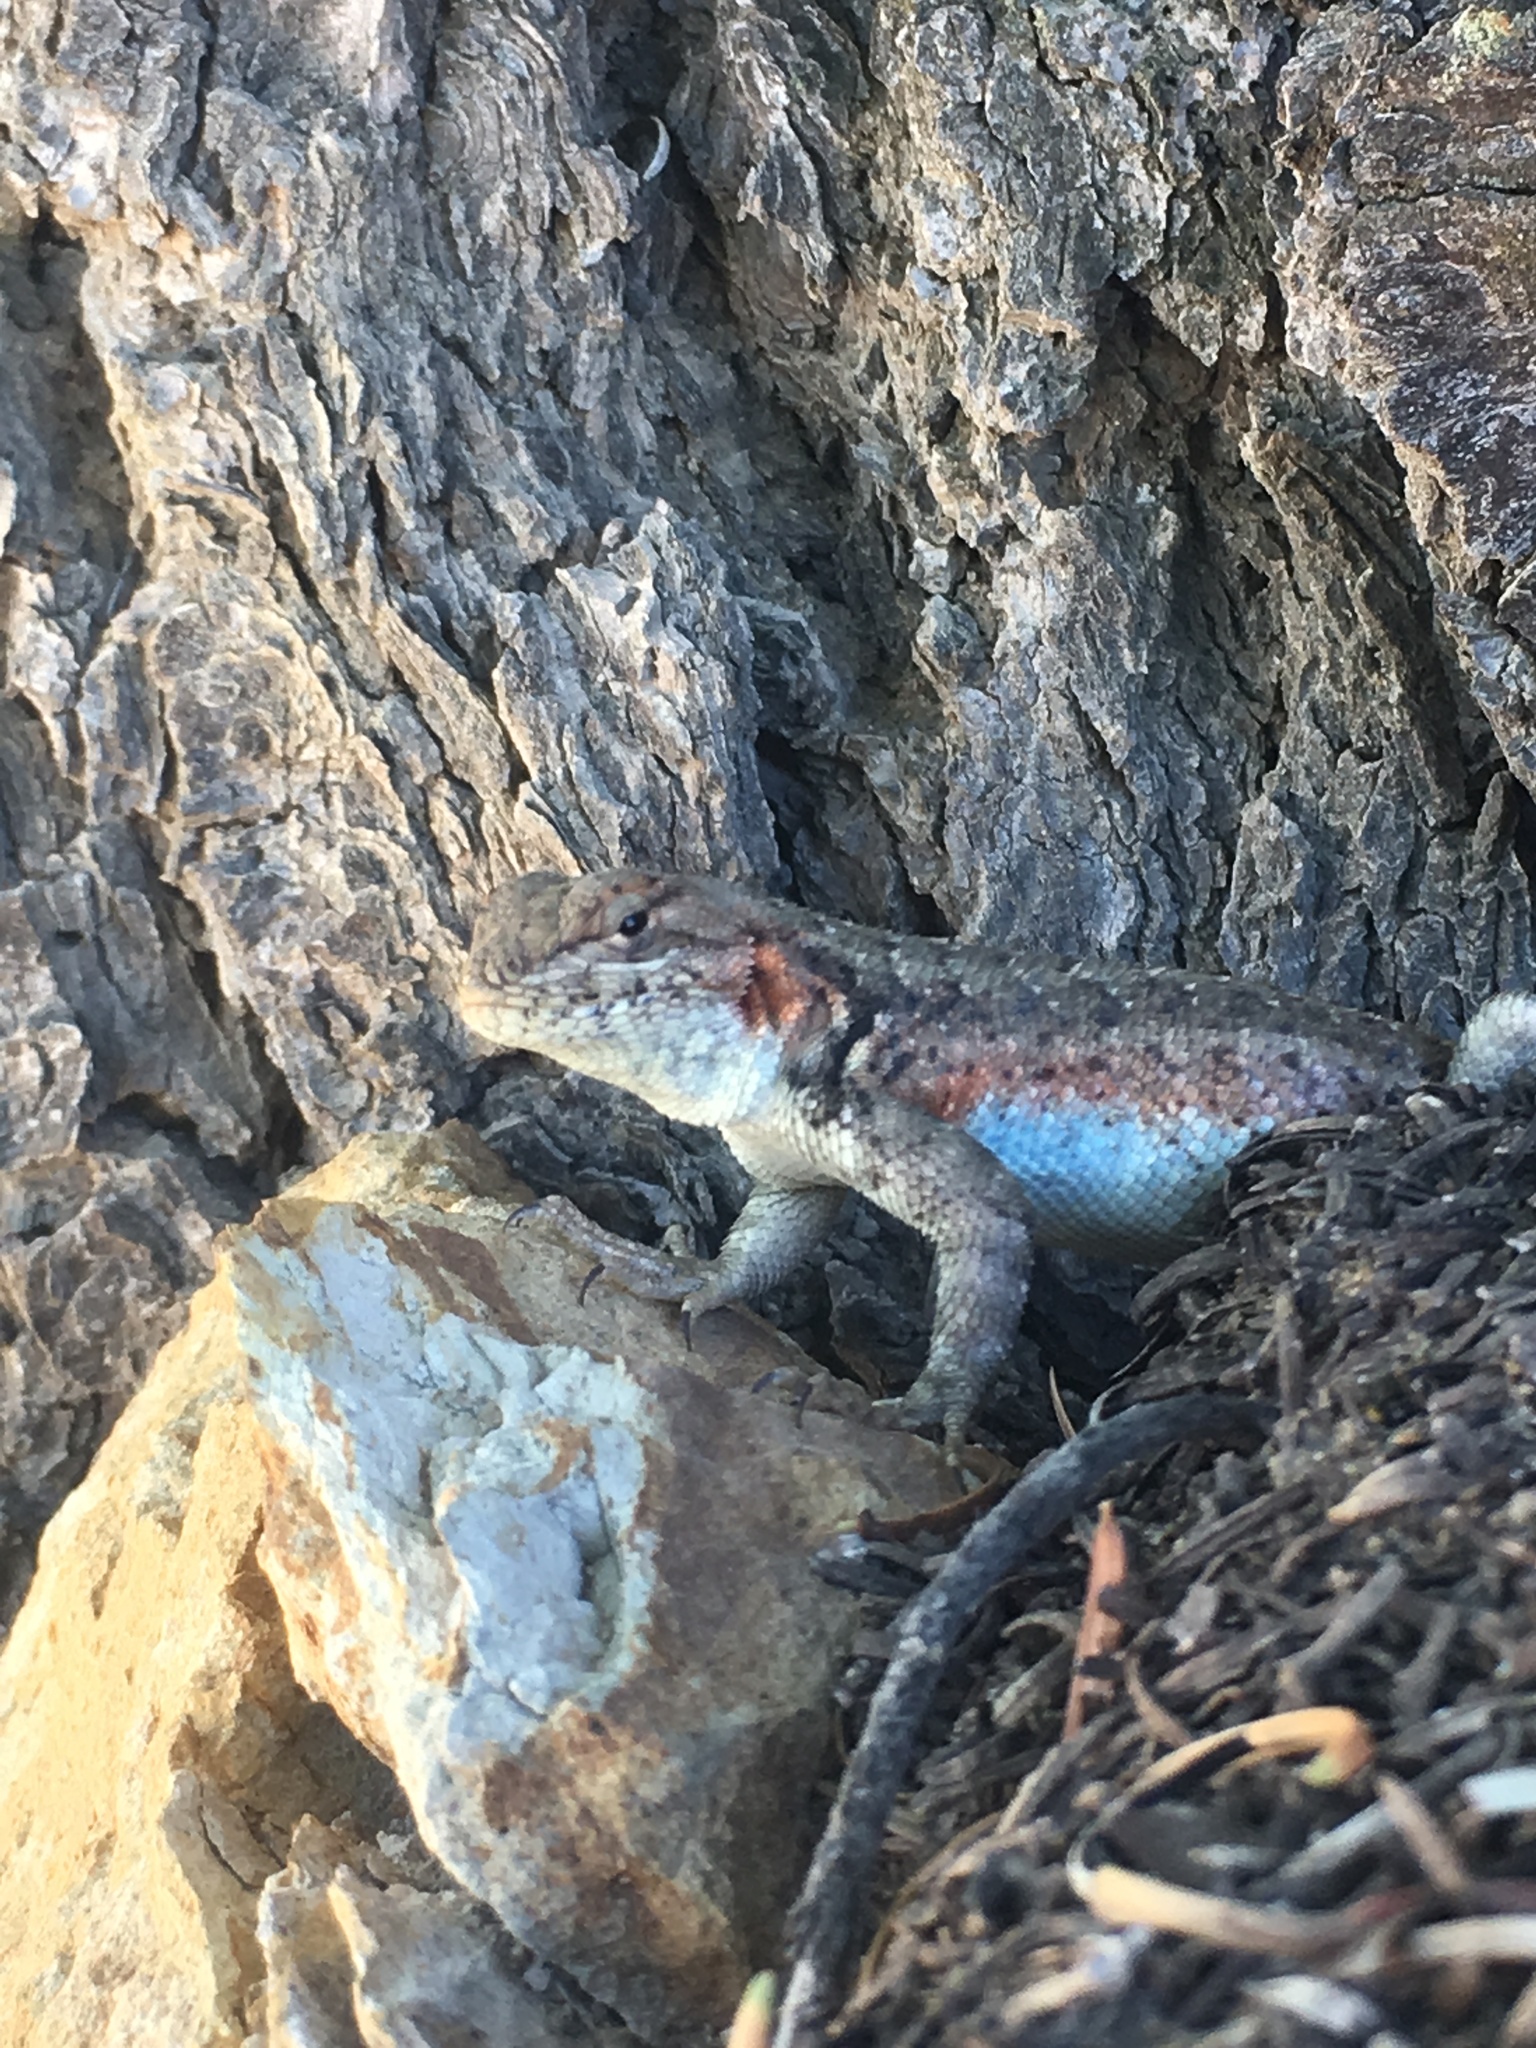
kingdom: Animalia
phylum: Chordata
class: Squamata
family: Phrynosomatidae
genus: Sceloporus
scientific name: Sceloporus graciosus
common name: Sagebrush lizard
